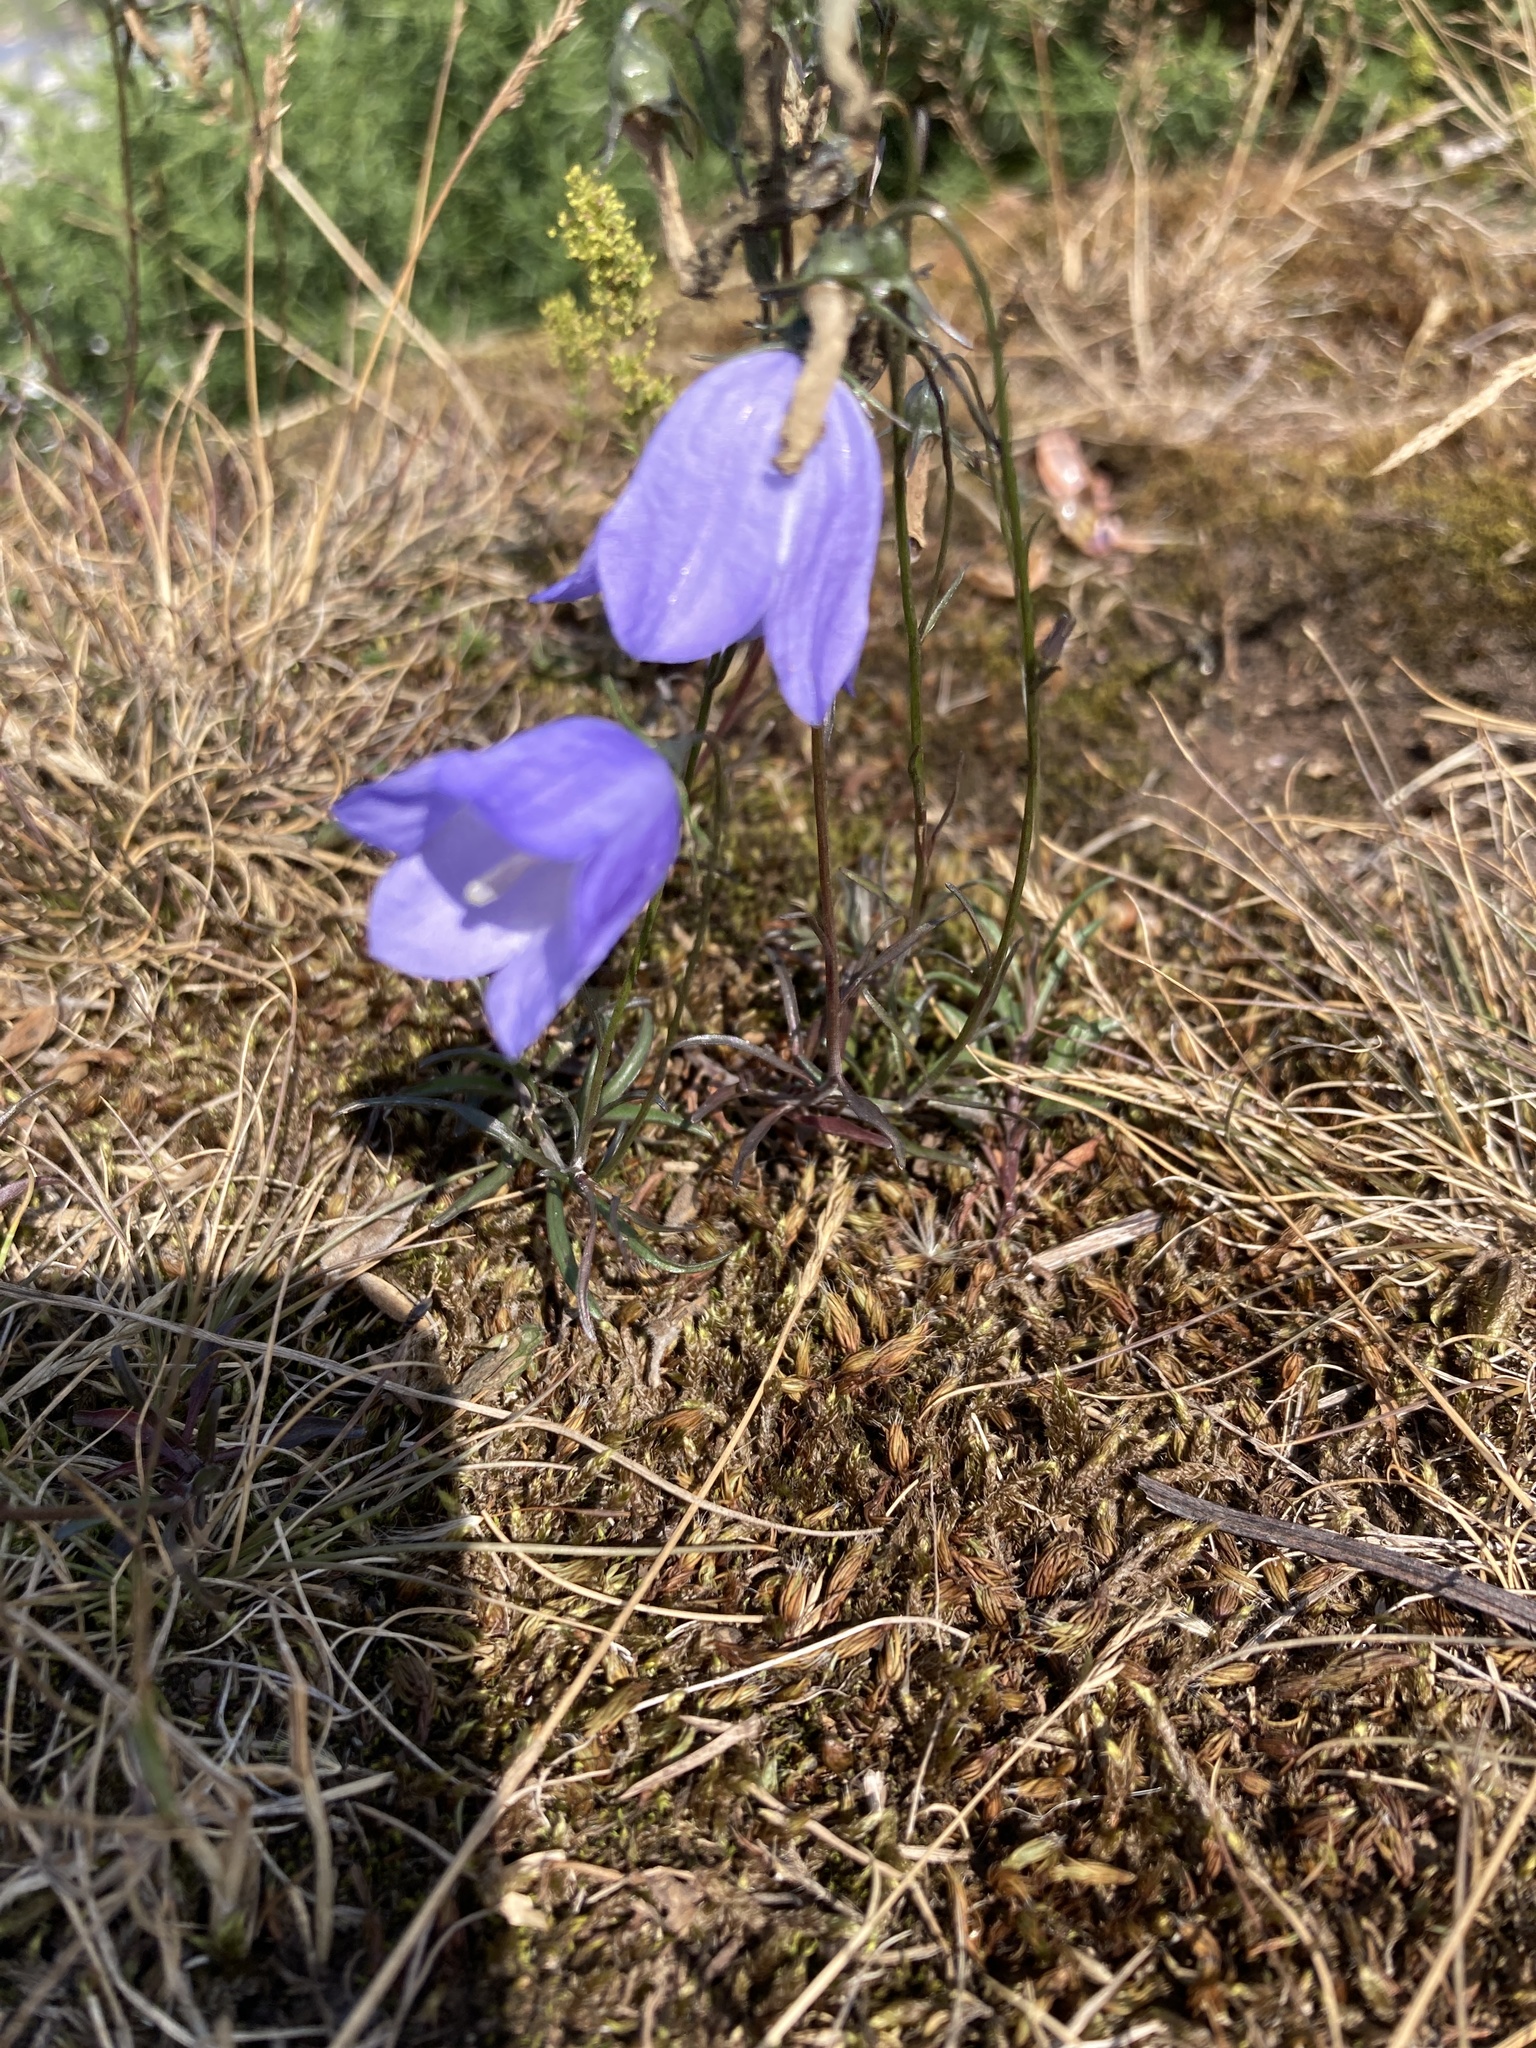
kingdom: Plantae
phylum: Tracheophyta
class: Magnoliopsida
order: Asterales
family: Campanulaceae
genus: Campanula
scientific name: Campanula rotundifolia
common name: Harebell
